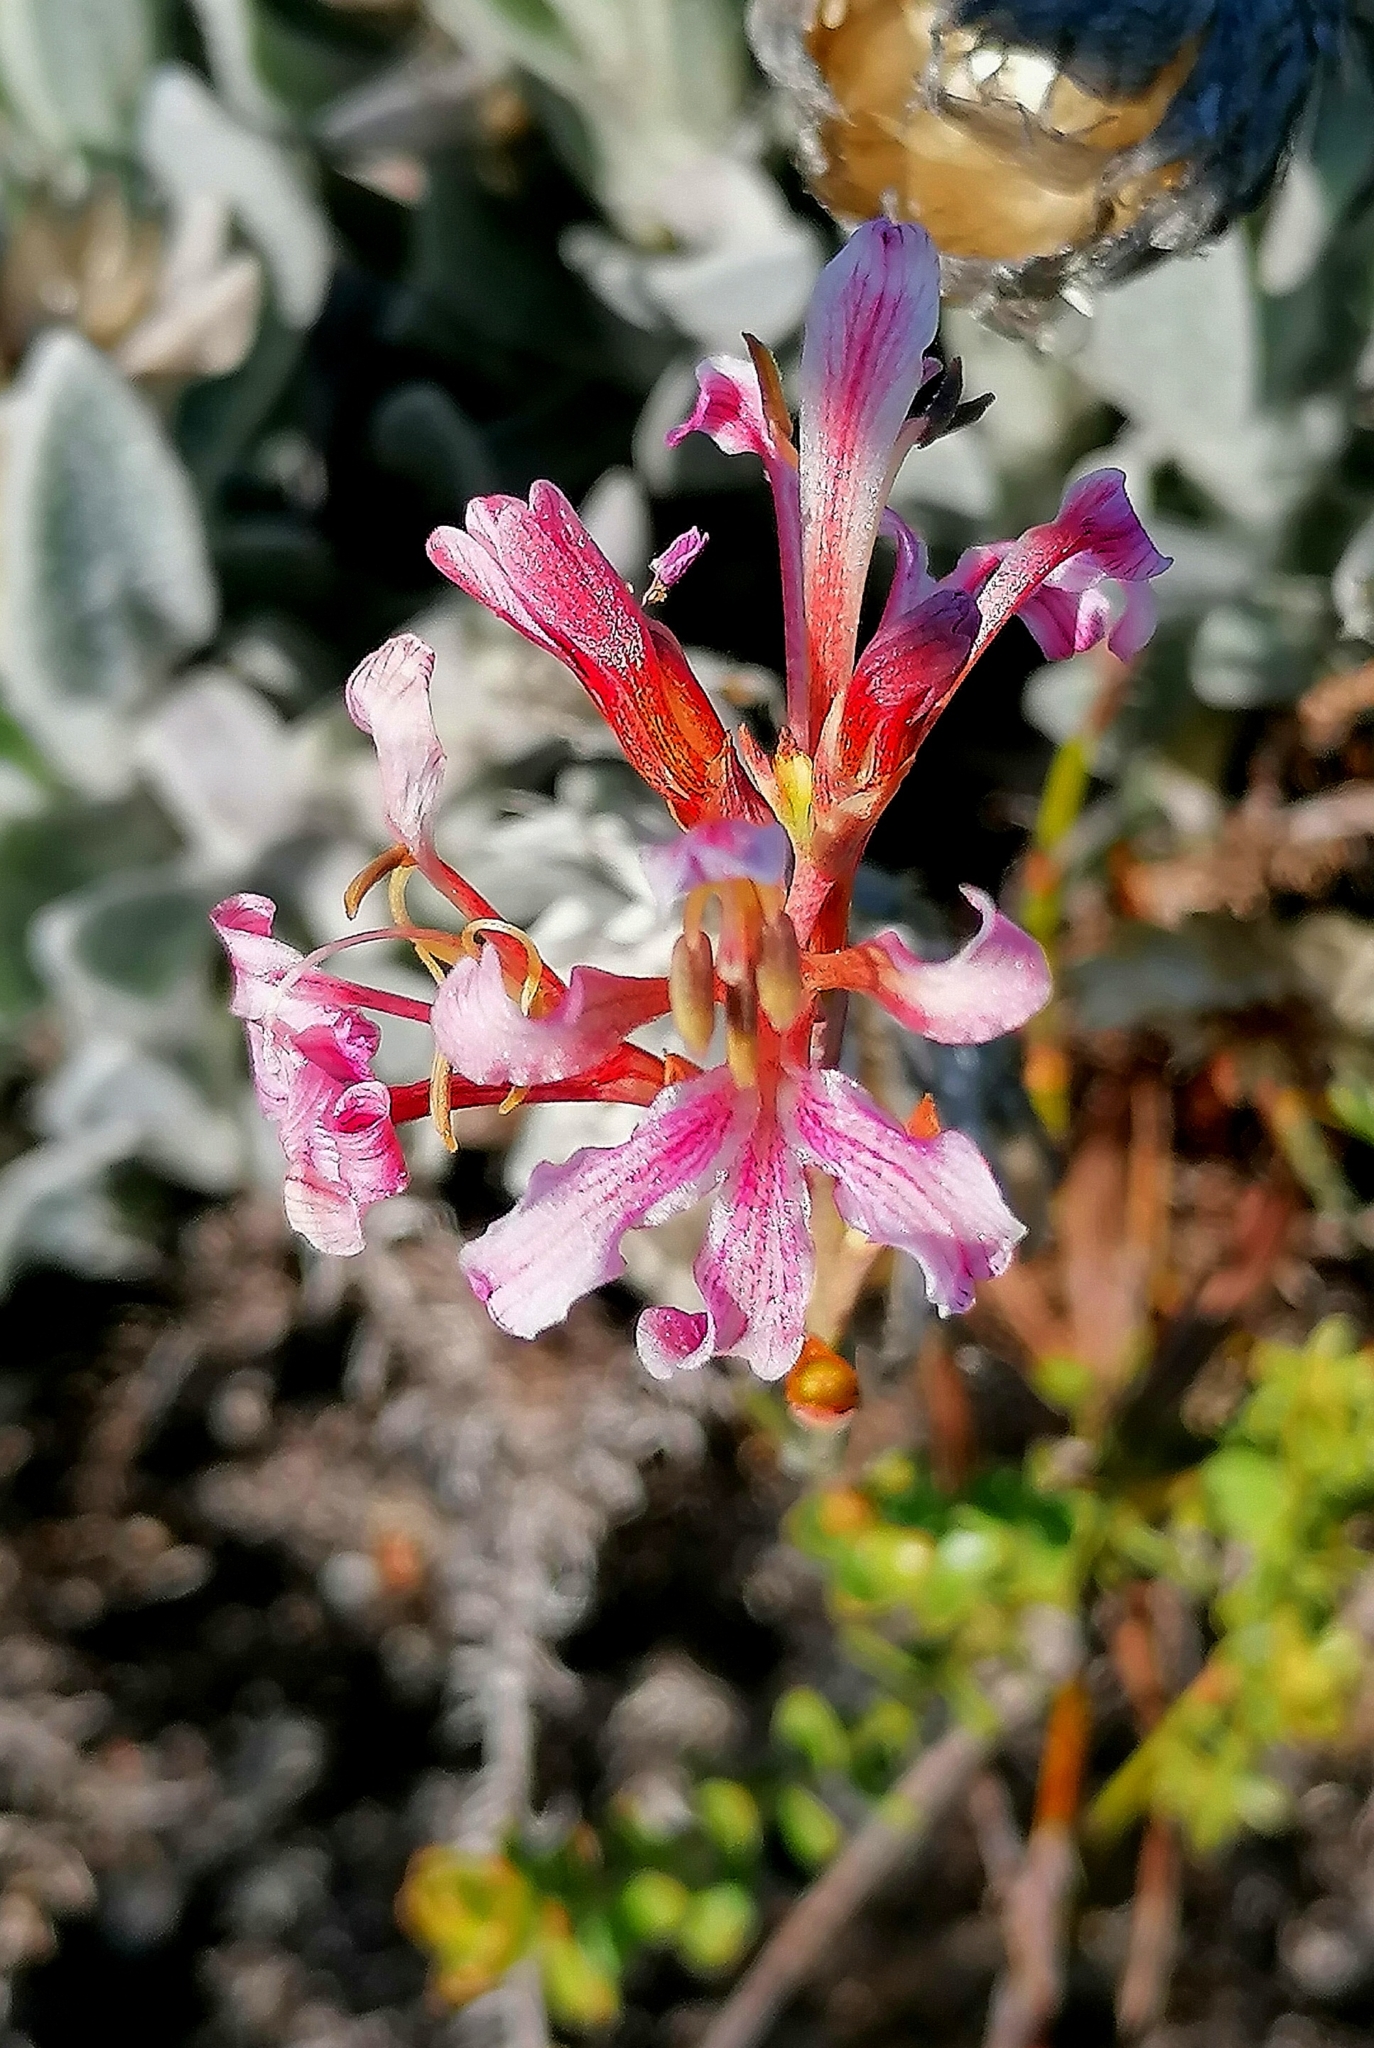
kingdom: Plantae
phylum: Tracheophyta
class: Liliopsida
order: Asparagales
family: Iridaceae
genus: Tritoniopsis
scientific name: Tritoniopsis dodii
